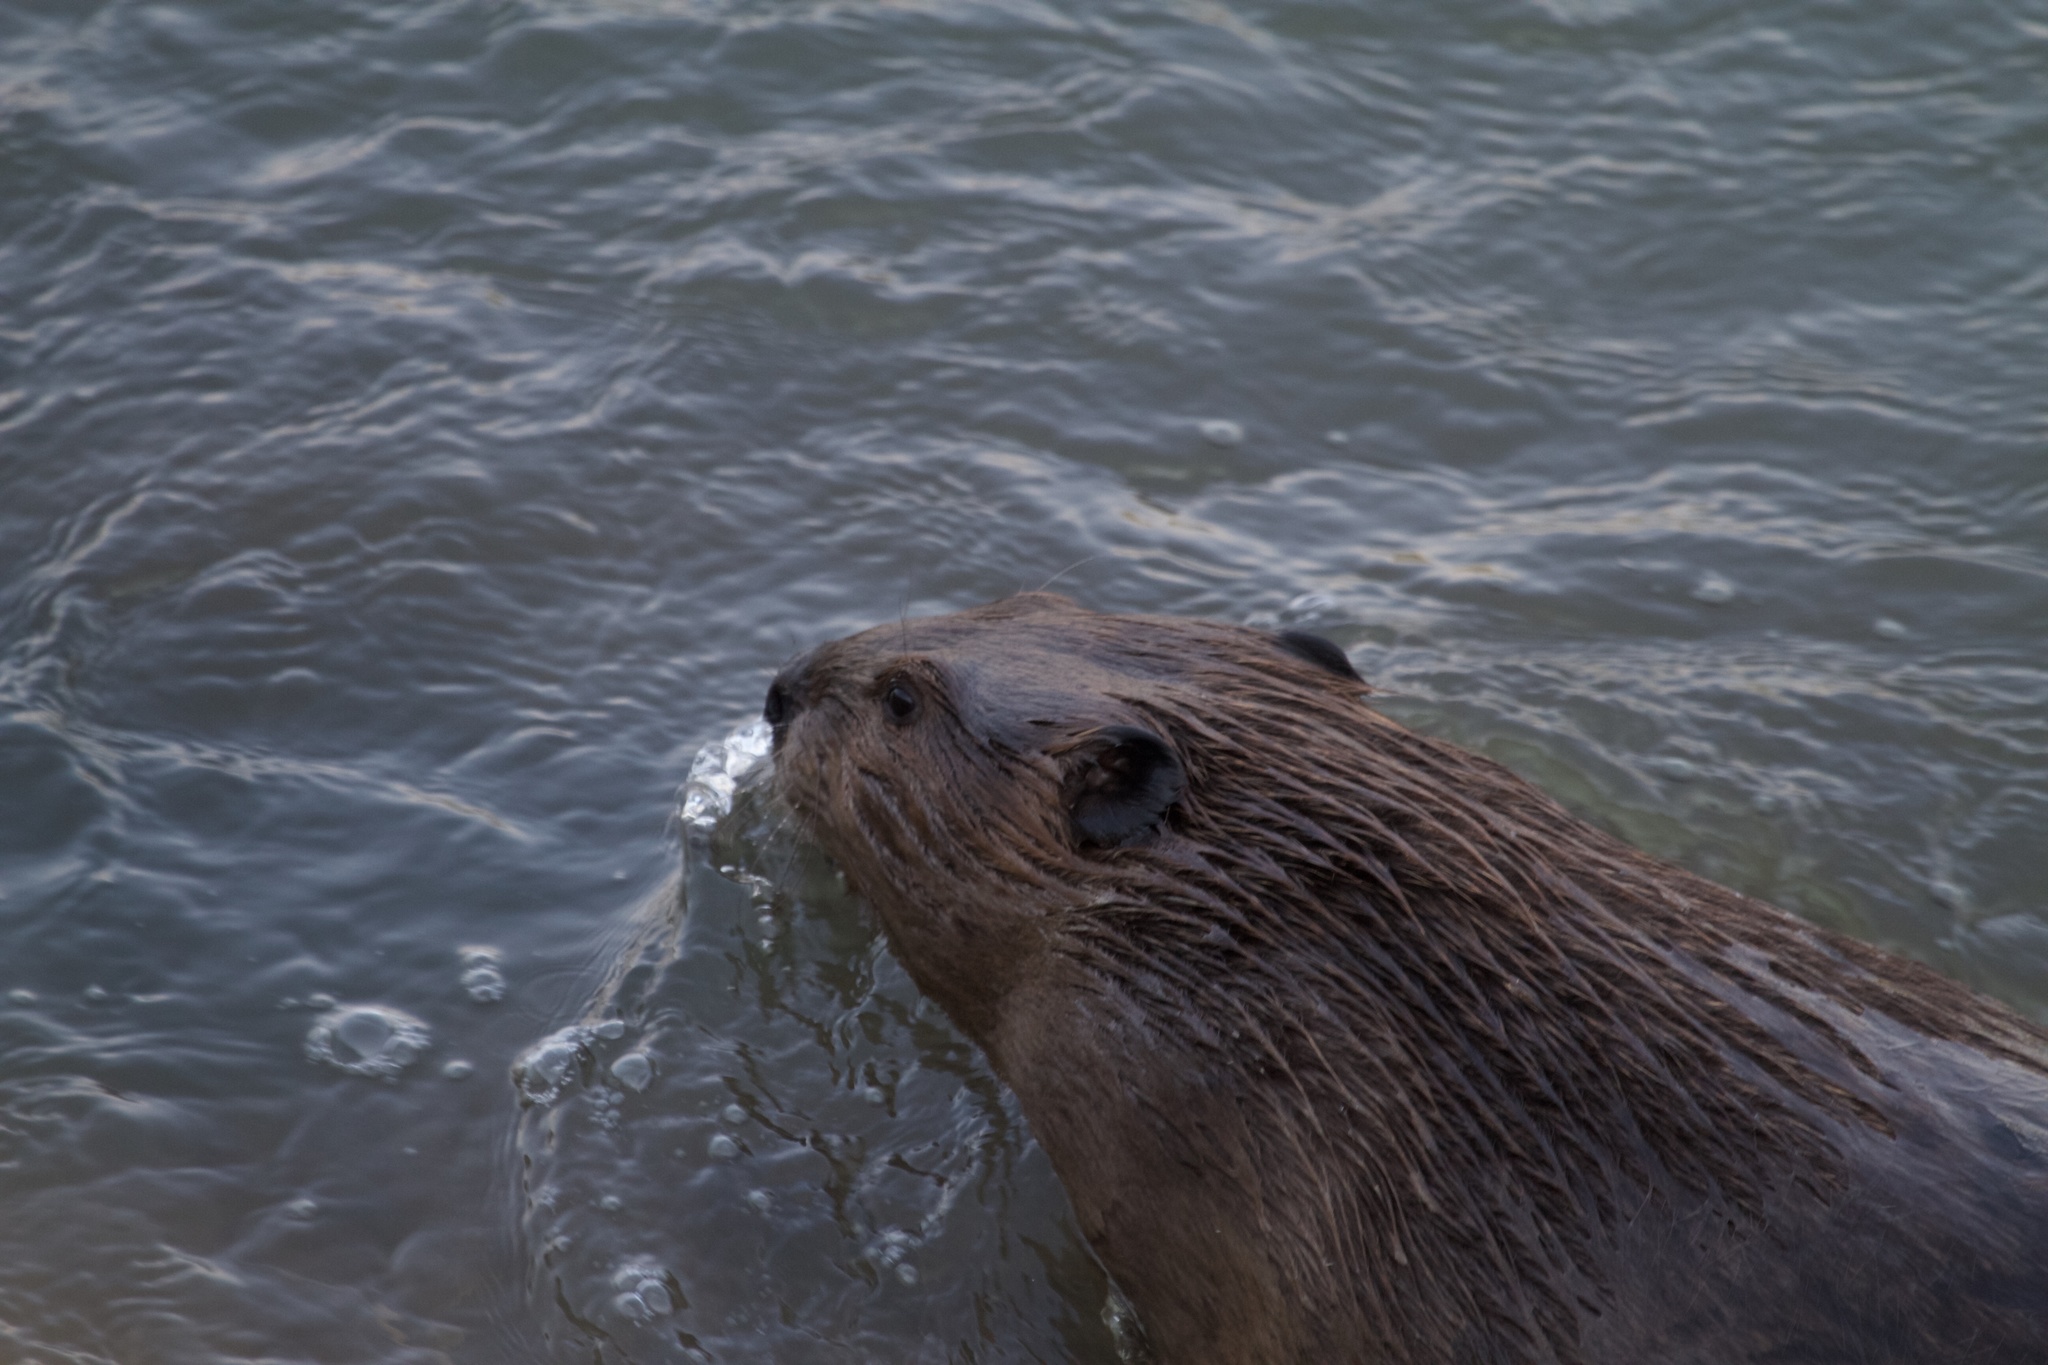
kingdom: Animalia
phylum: Chordata
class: Mammalia
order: Rodentia
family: Castoridae
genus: Castor
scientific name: Castor canadensis
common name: American beaver
